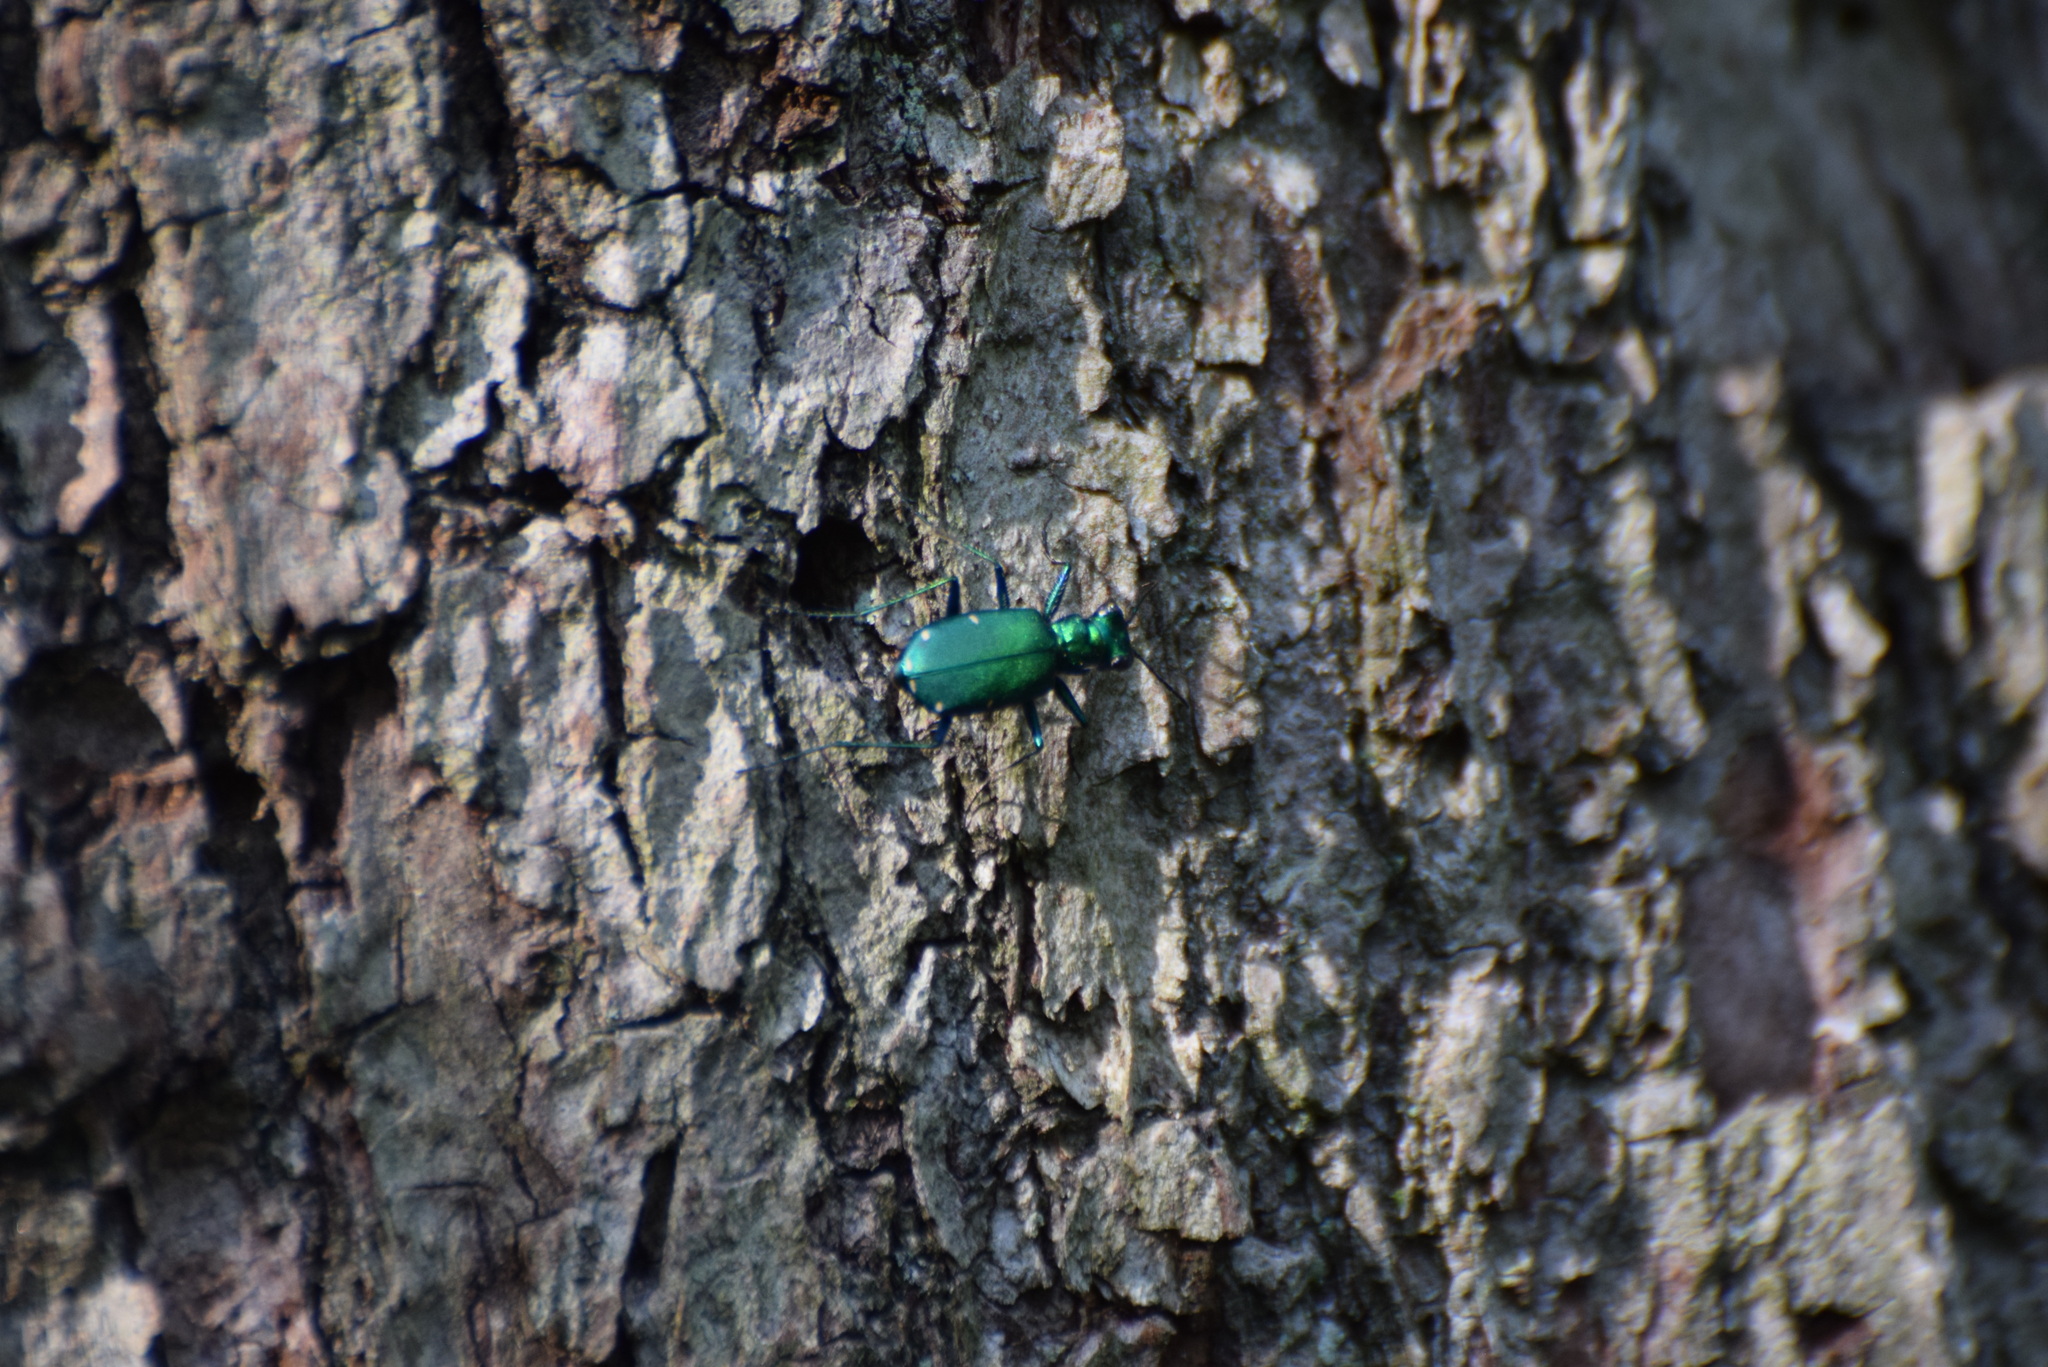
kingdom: Animalia
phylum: Arthropoda
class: Insecta
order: Coleoptera
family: Carabidae
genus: Cicindela
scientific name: Cicindela sexguttata
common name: Six-spotted tiger beetle
